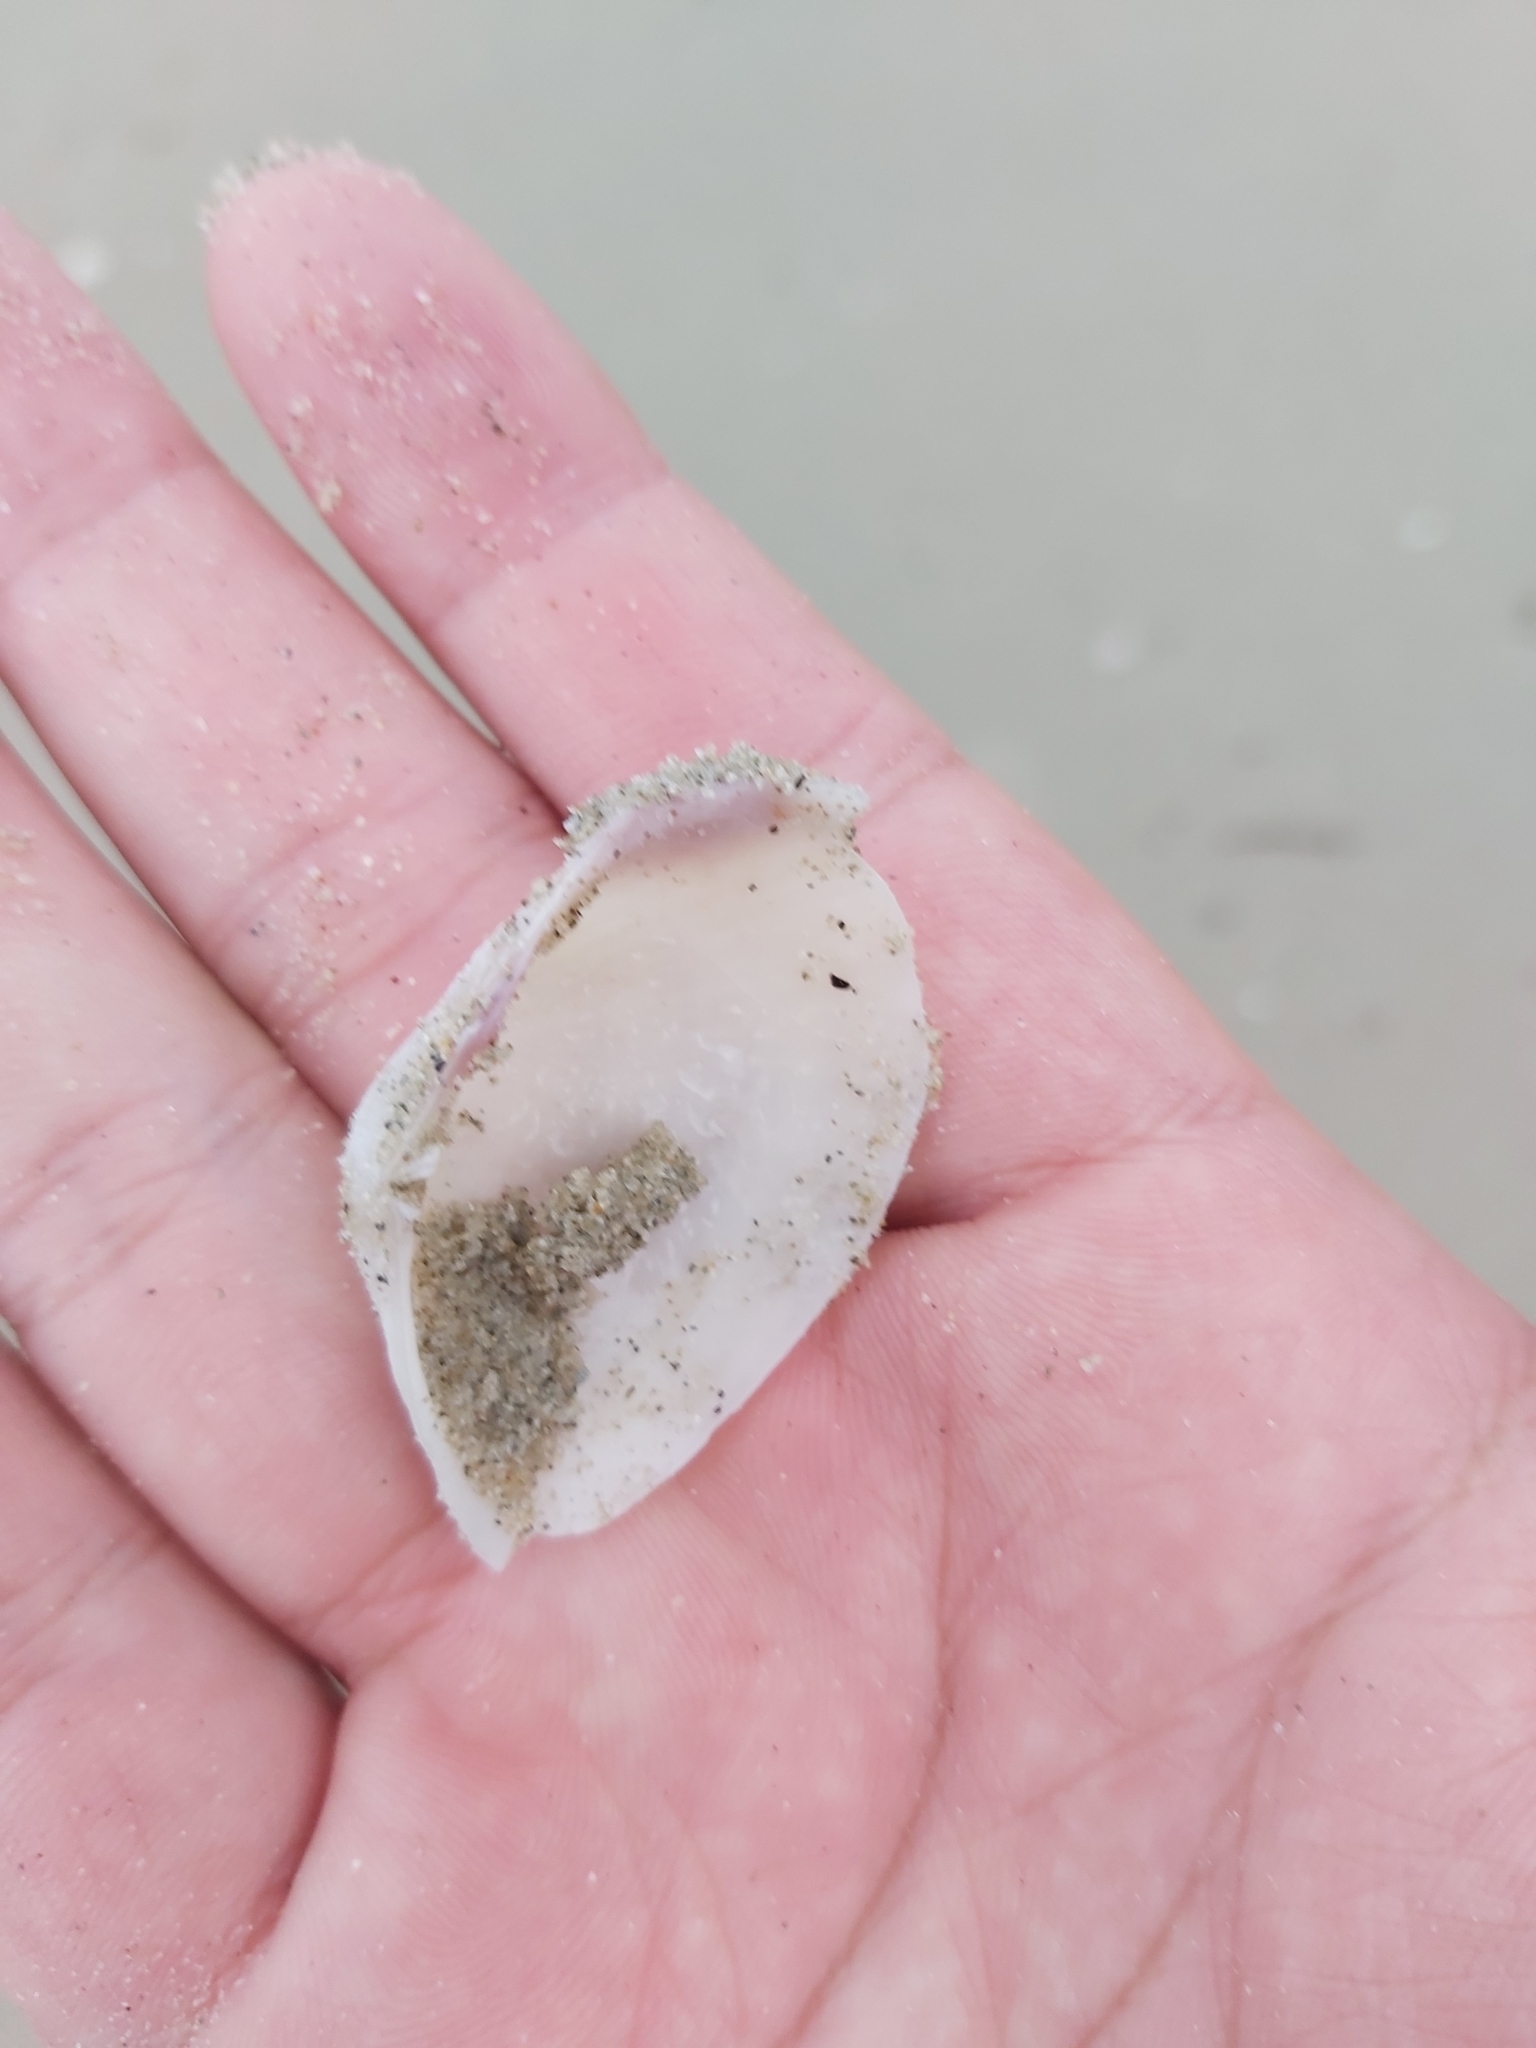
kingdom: Animalia
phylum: Mollusca
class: Bivalvia
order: Venerida
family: Mactridae
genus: Meropesta
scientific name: Meropesta nicobarica
